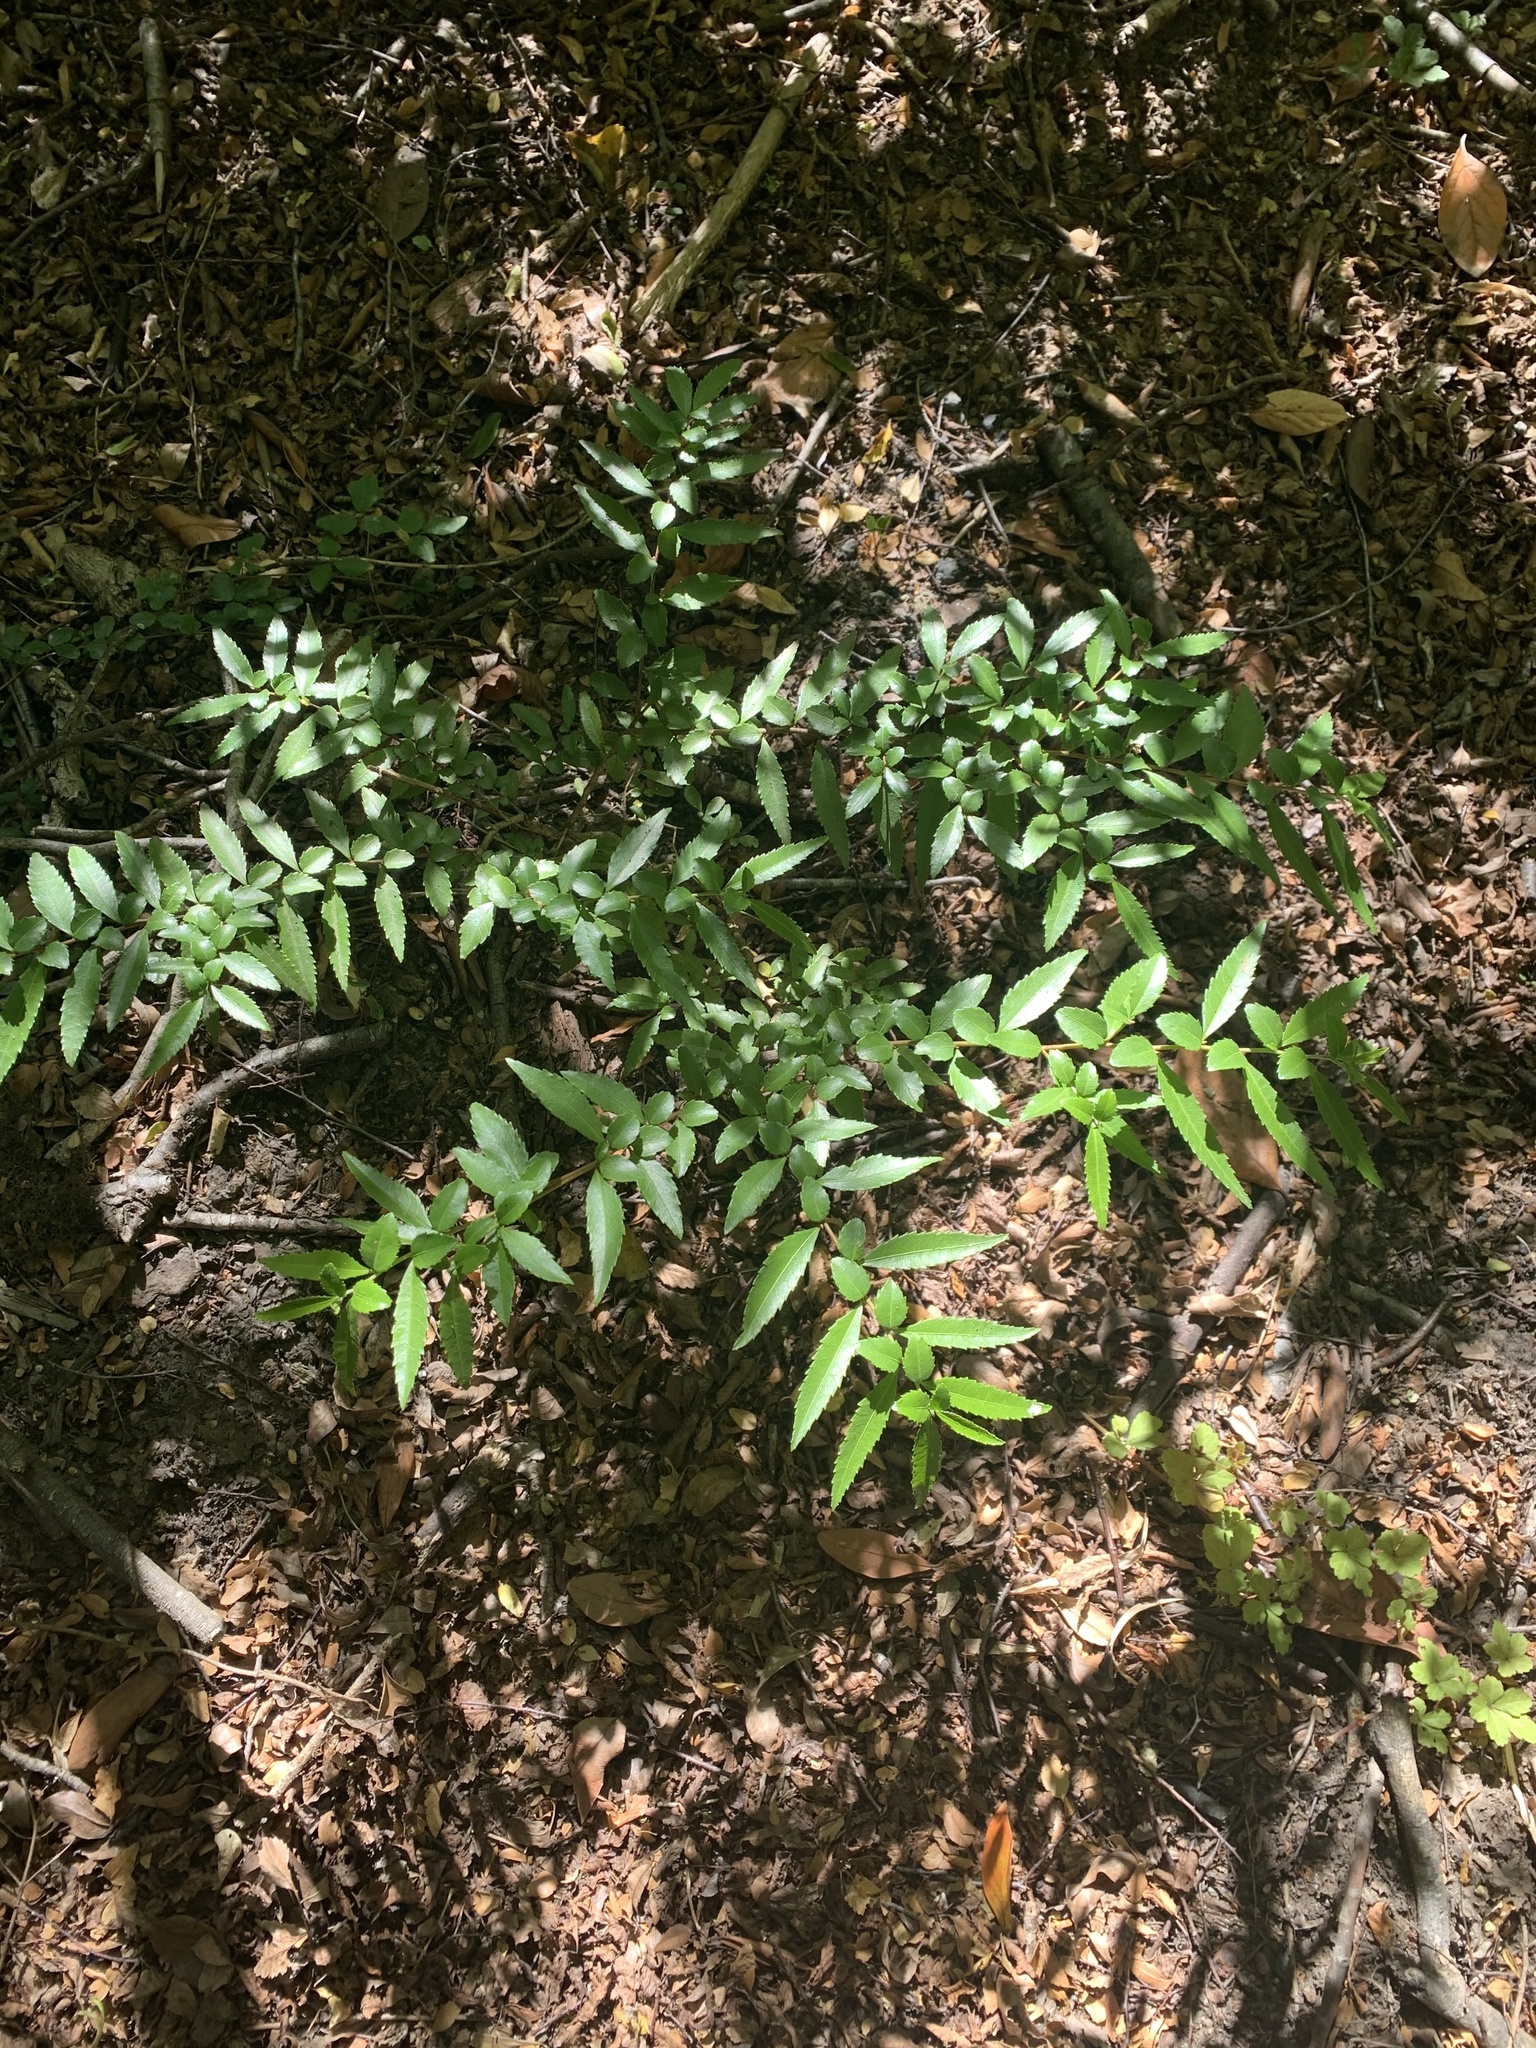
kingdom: Plantae
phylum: Tracheophyta
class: Magnoliopsida
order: Malpighiales
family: Salicaceae
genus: Azara
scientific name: Azara lanceolata
